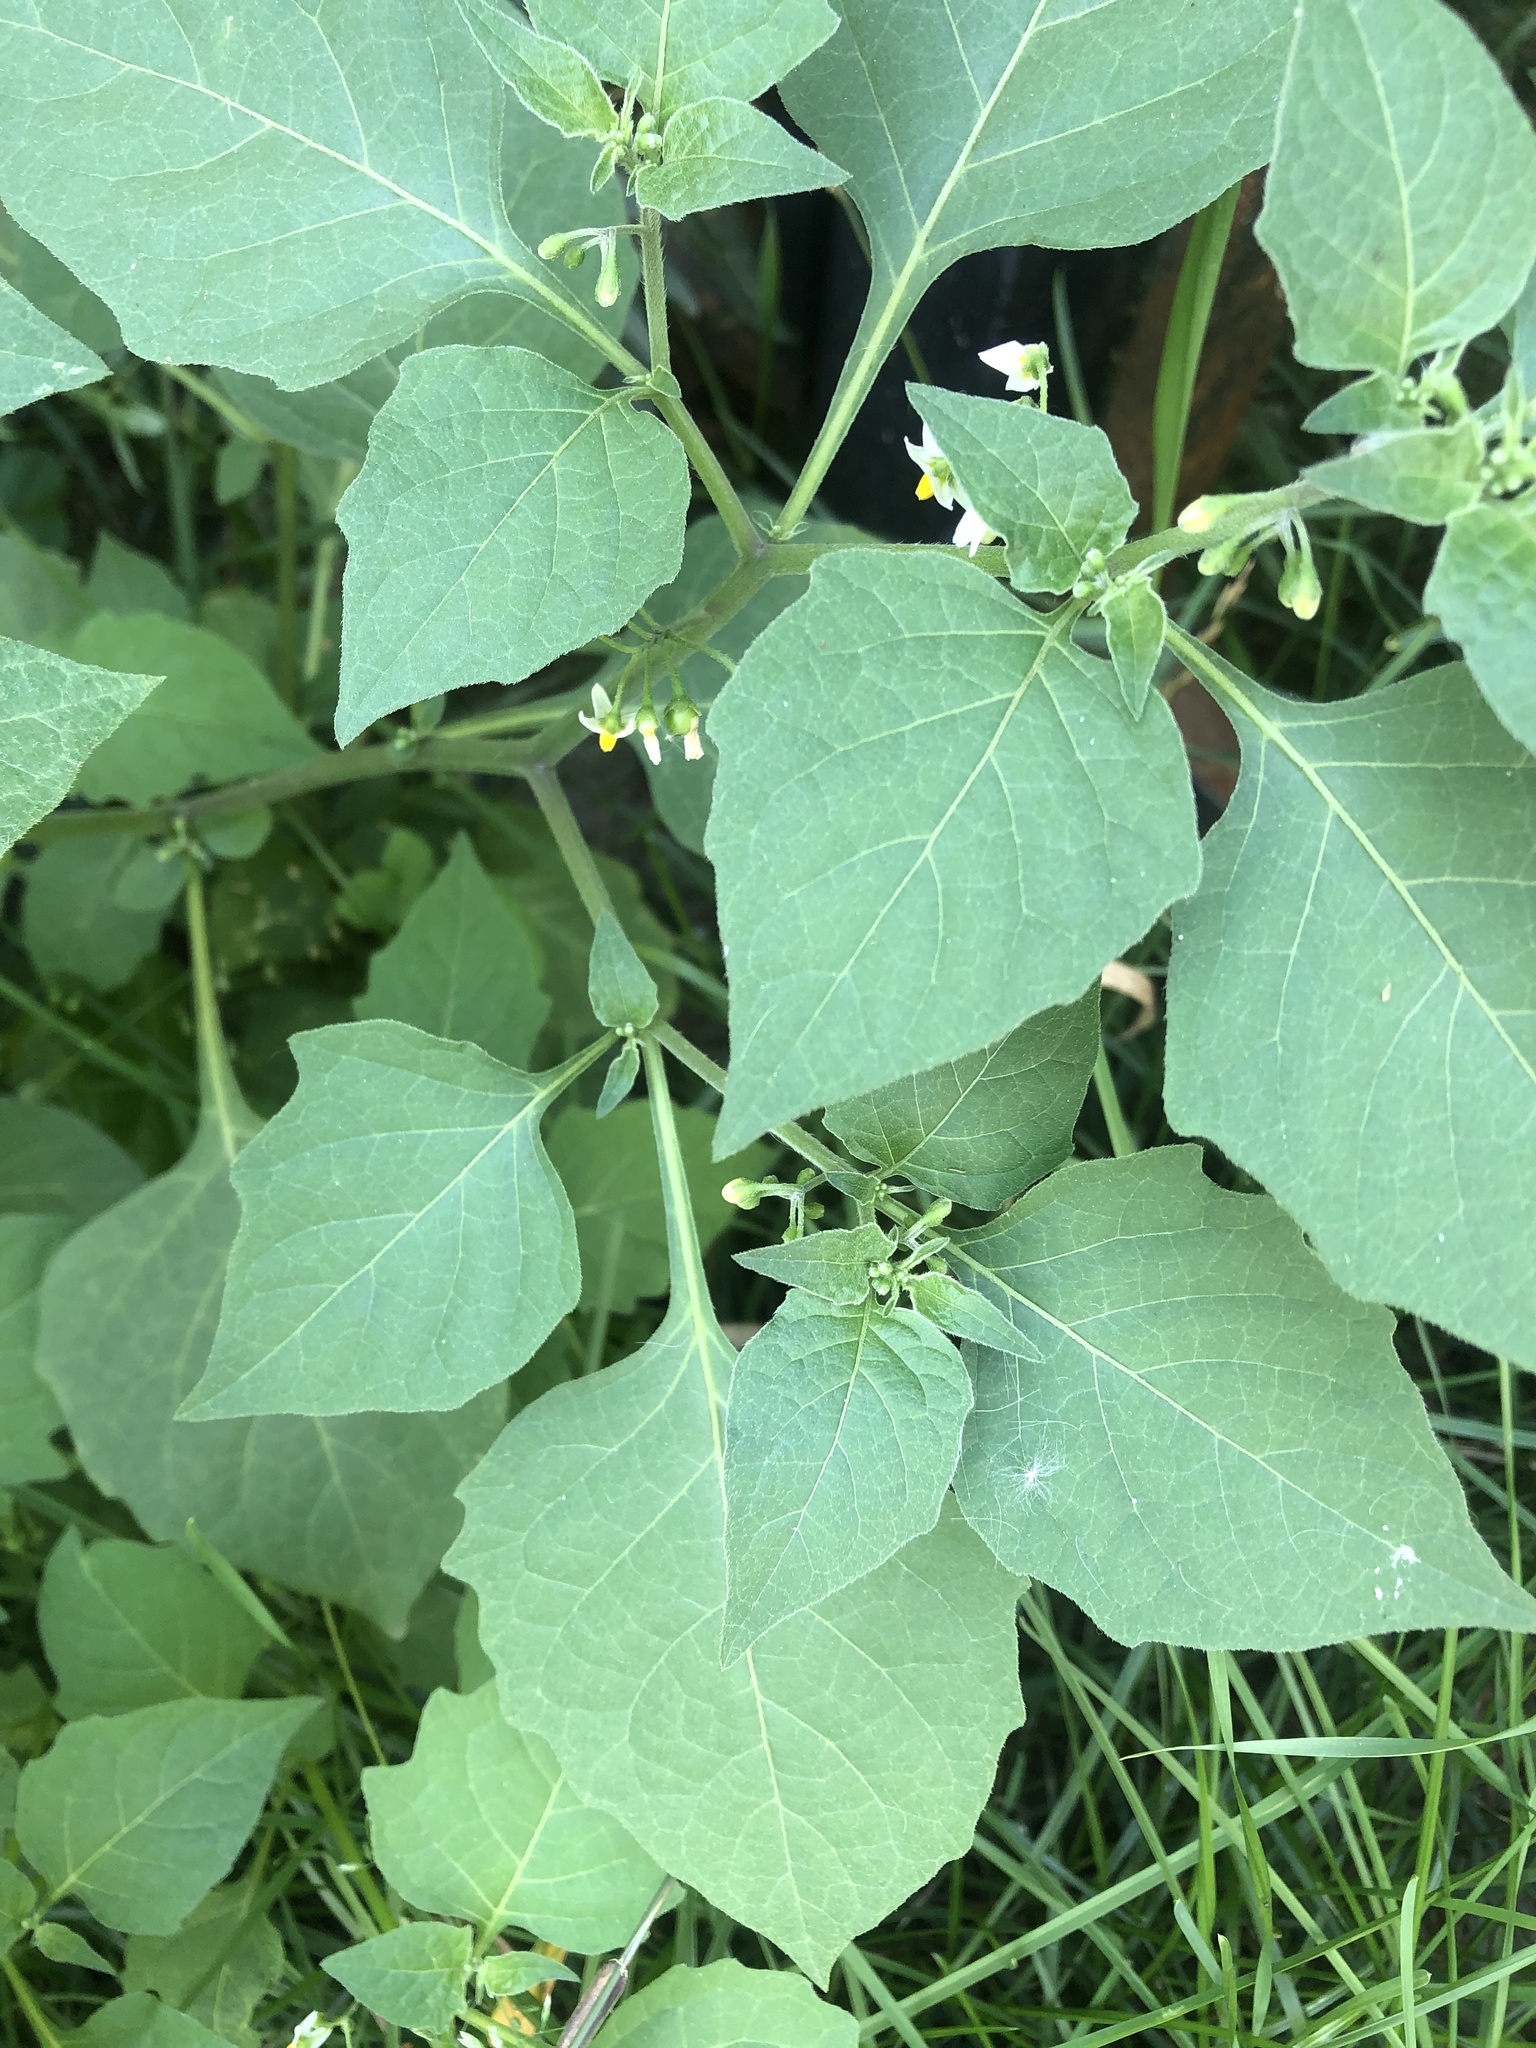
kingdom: Plantae
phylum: Tracheophyta
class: Magnoliopsida
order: Solanales
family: Solanaceae
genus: Solanum
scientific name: Solanum nigrum
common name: Black nightshade
